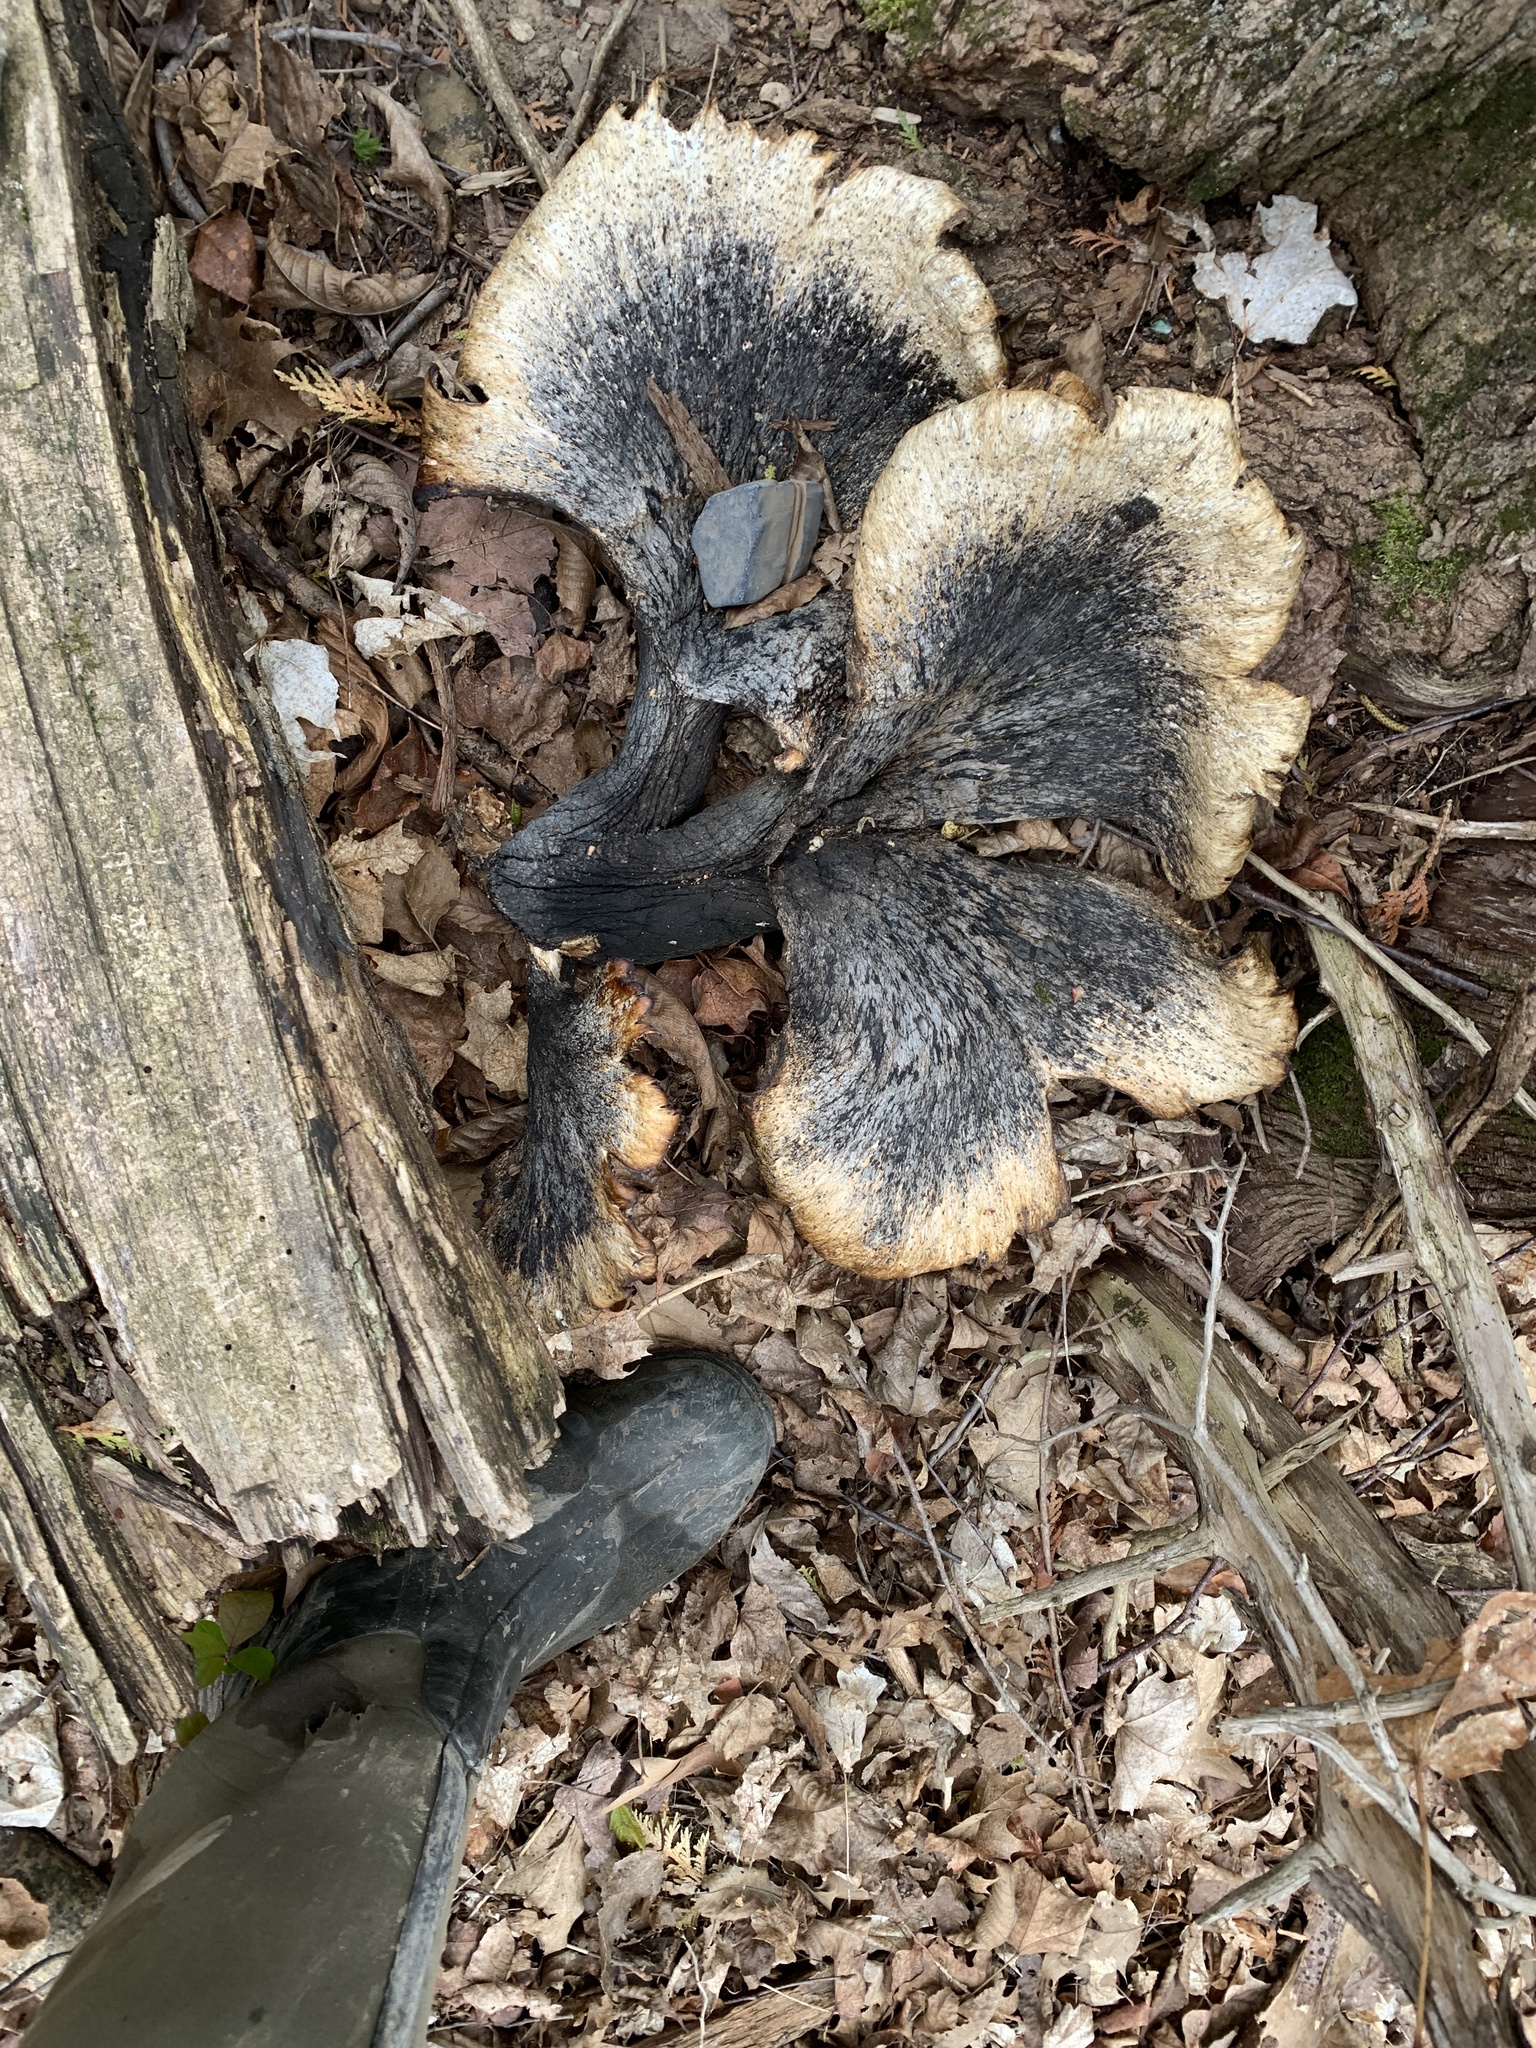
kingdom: Fungi
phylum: Basidiomycota
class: Agaricomycetes
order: Polyporales
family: Polyporaceae
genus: Cerioporus
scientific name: Cerioporus squamosus
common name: Dryad's saddle
